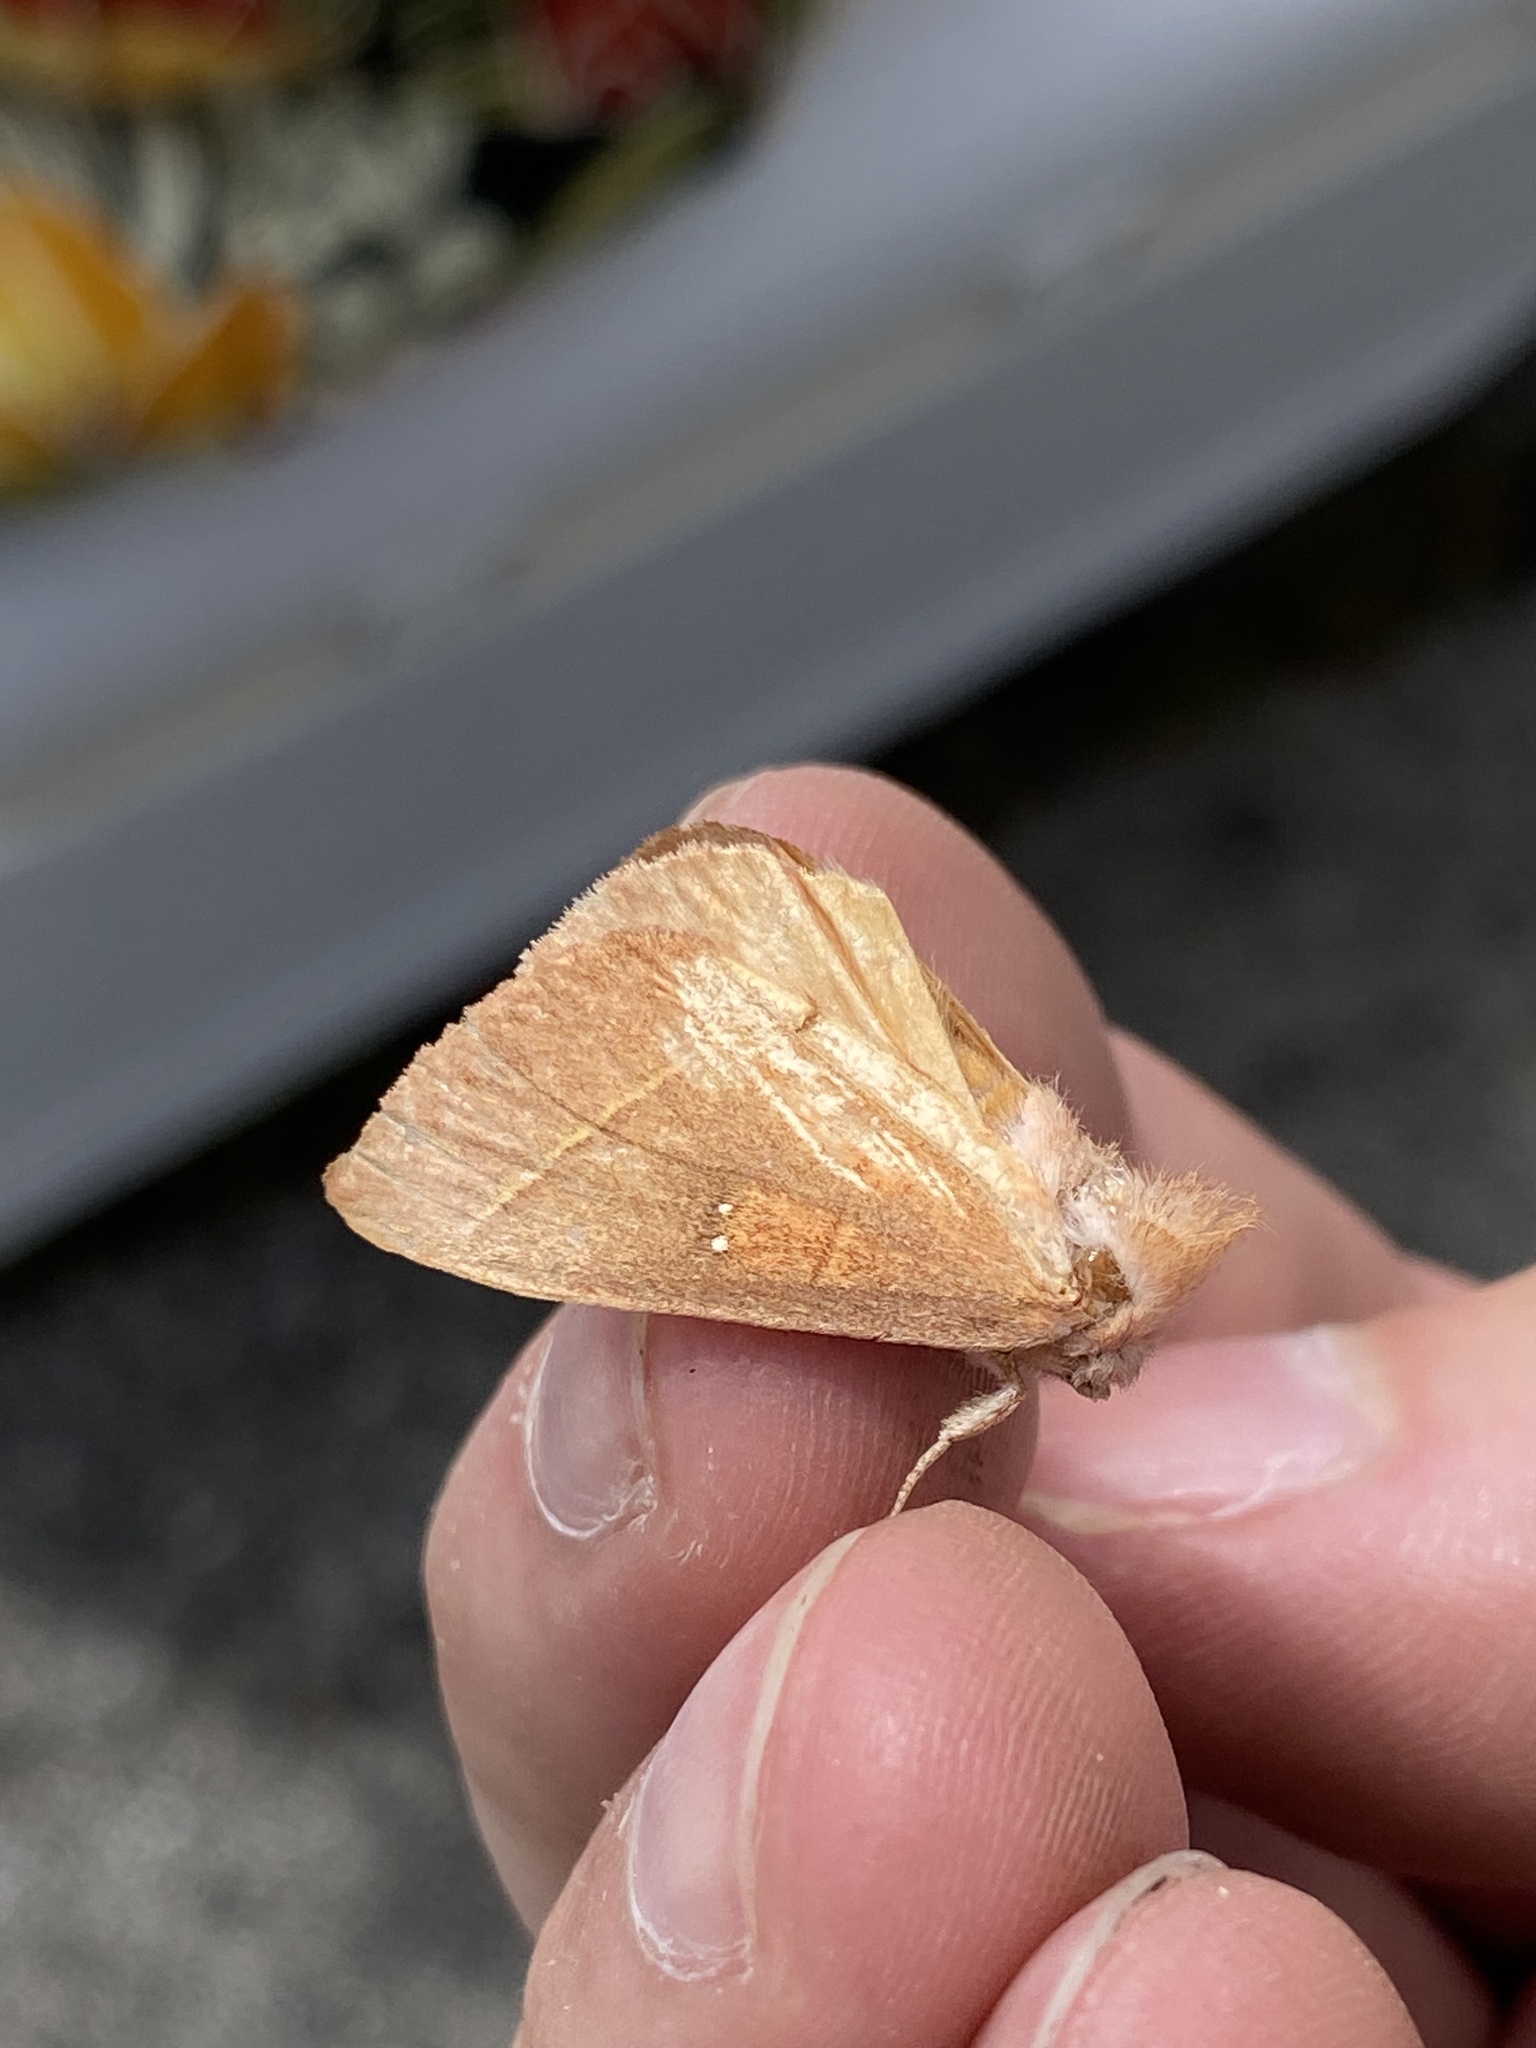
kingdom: Animalia
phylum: Arthropoda
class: Insecta
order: Lepidoptera
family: Notodontidae
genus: Nadata
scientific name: Nadata gibbosa
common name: White-dotted prominent
